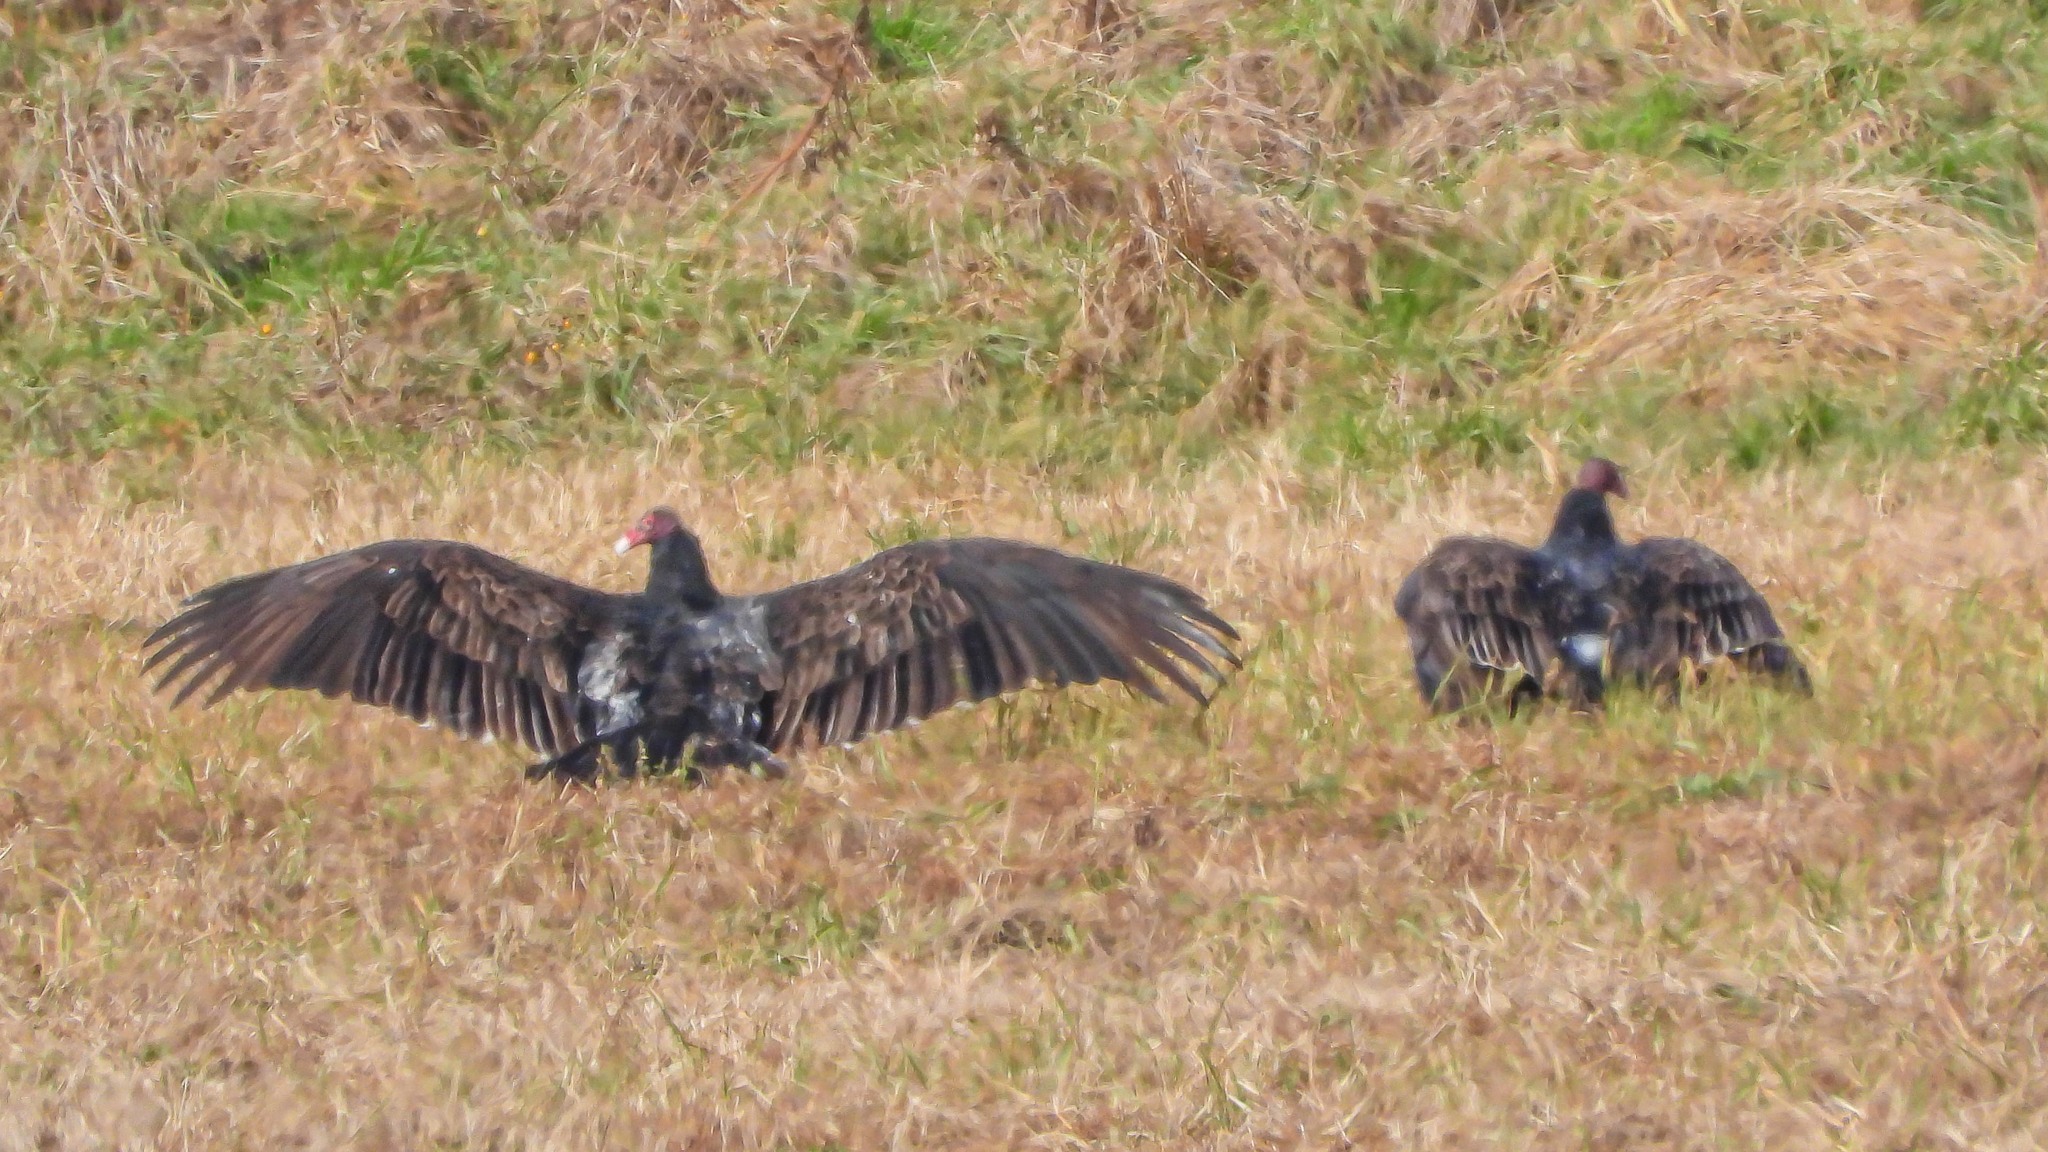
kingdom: Animalia
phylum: Chordata
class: Aves
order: Accipitriformes
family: Cathartidae
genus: Cathartes
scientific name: Cathartes aura
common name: Turkey vulture
